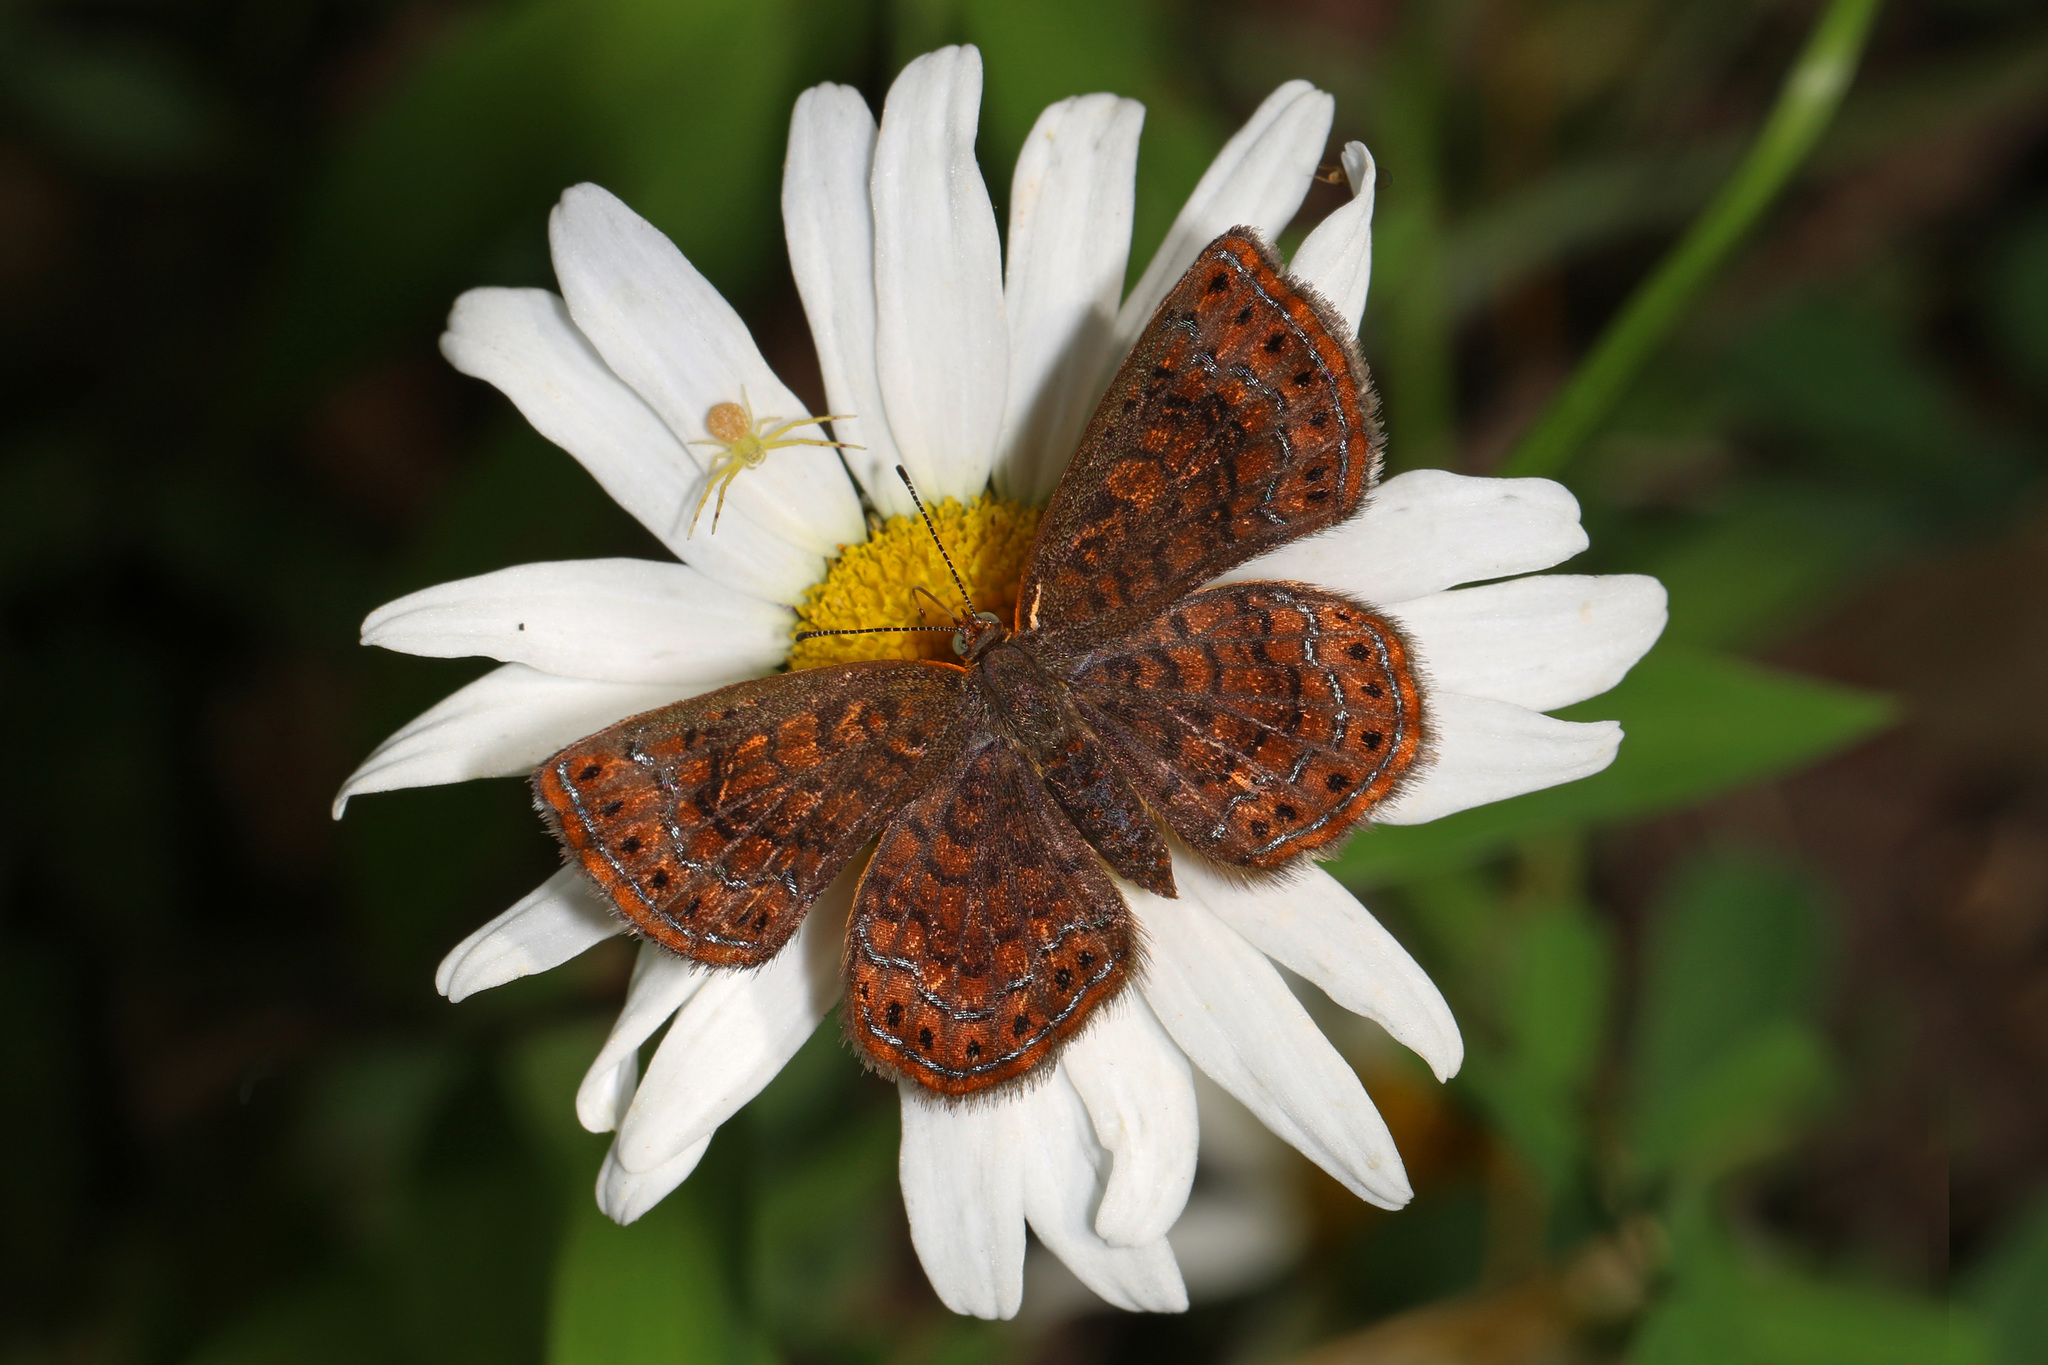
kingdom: Animalia
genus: Calephelis
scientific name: Calephelis borealis
